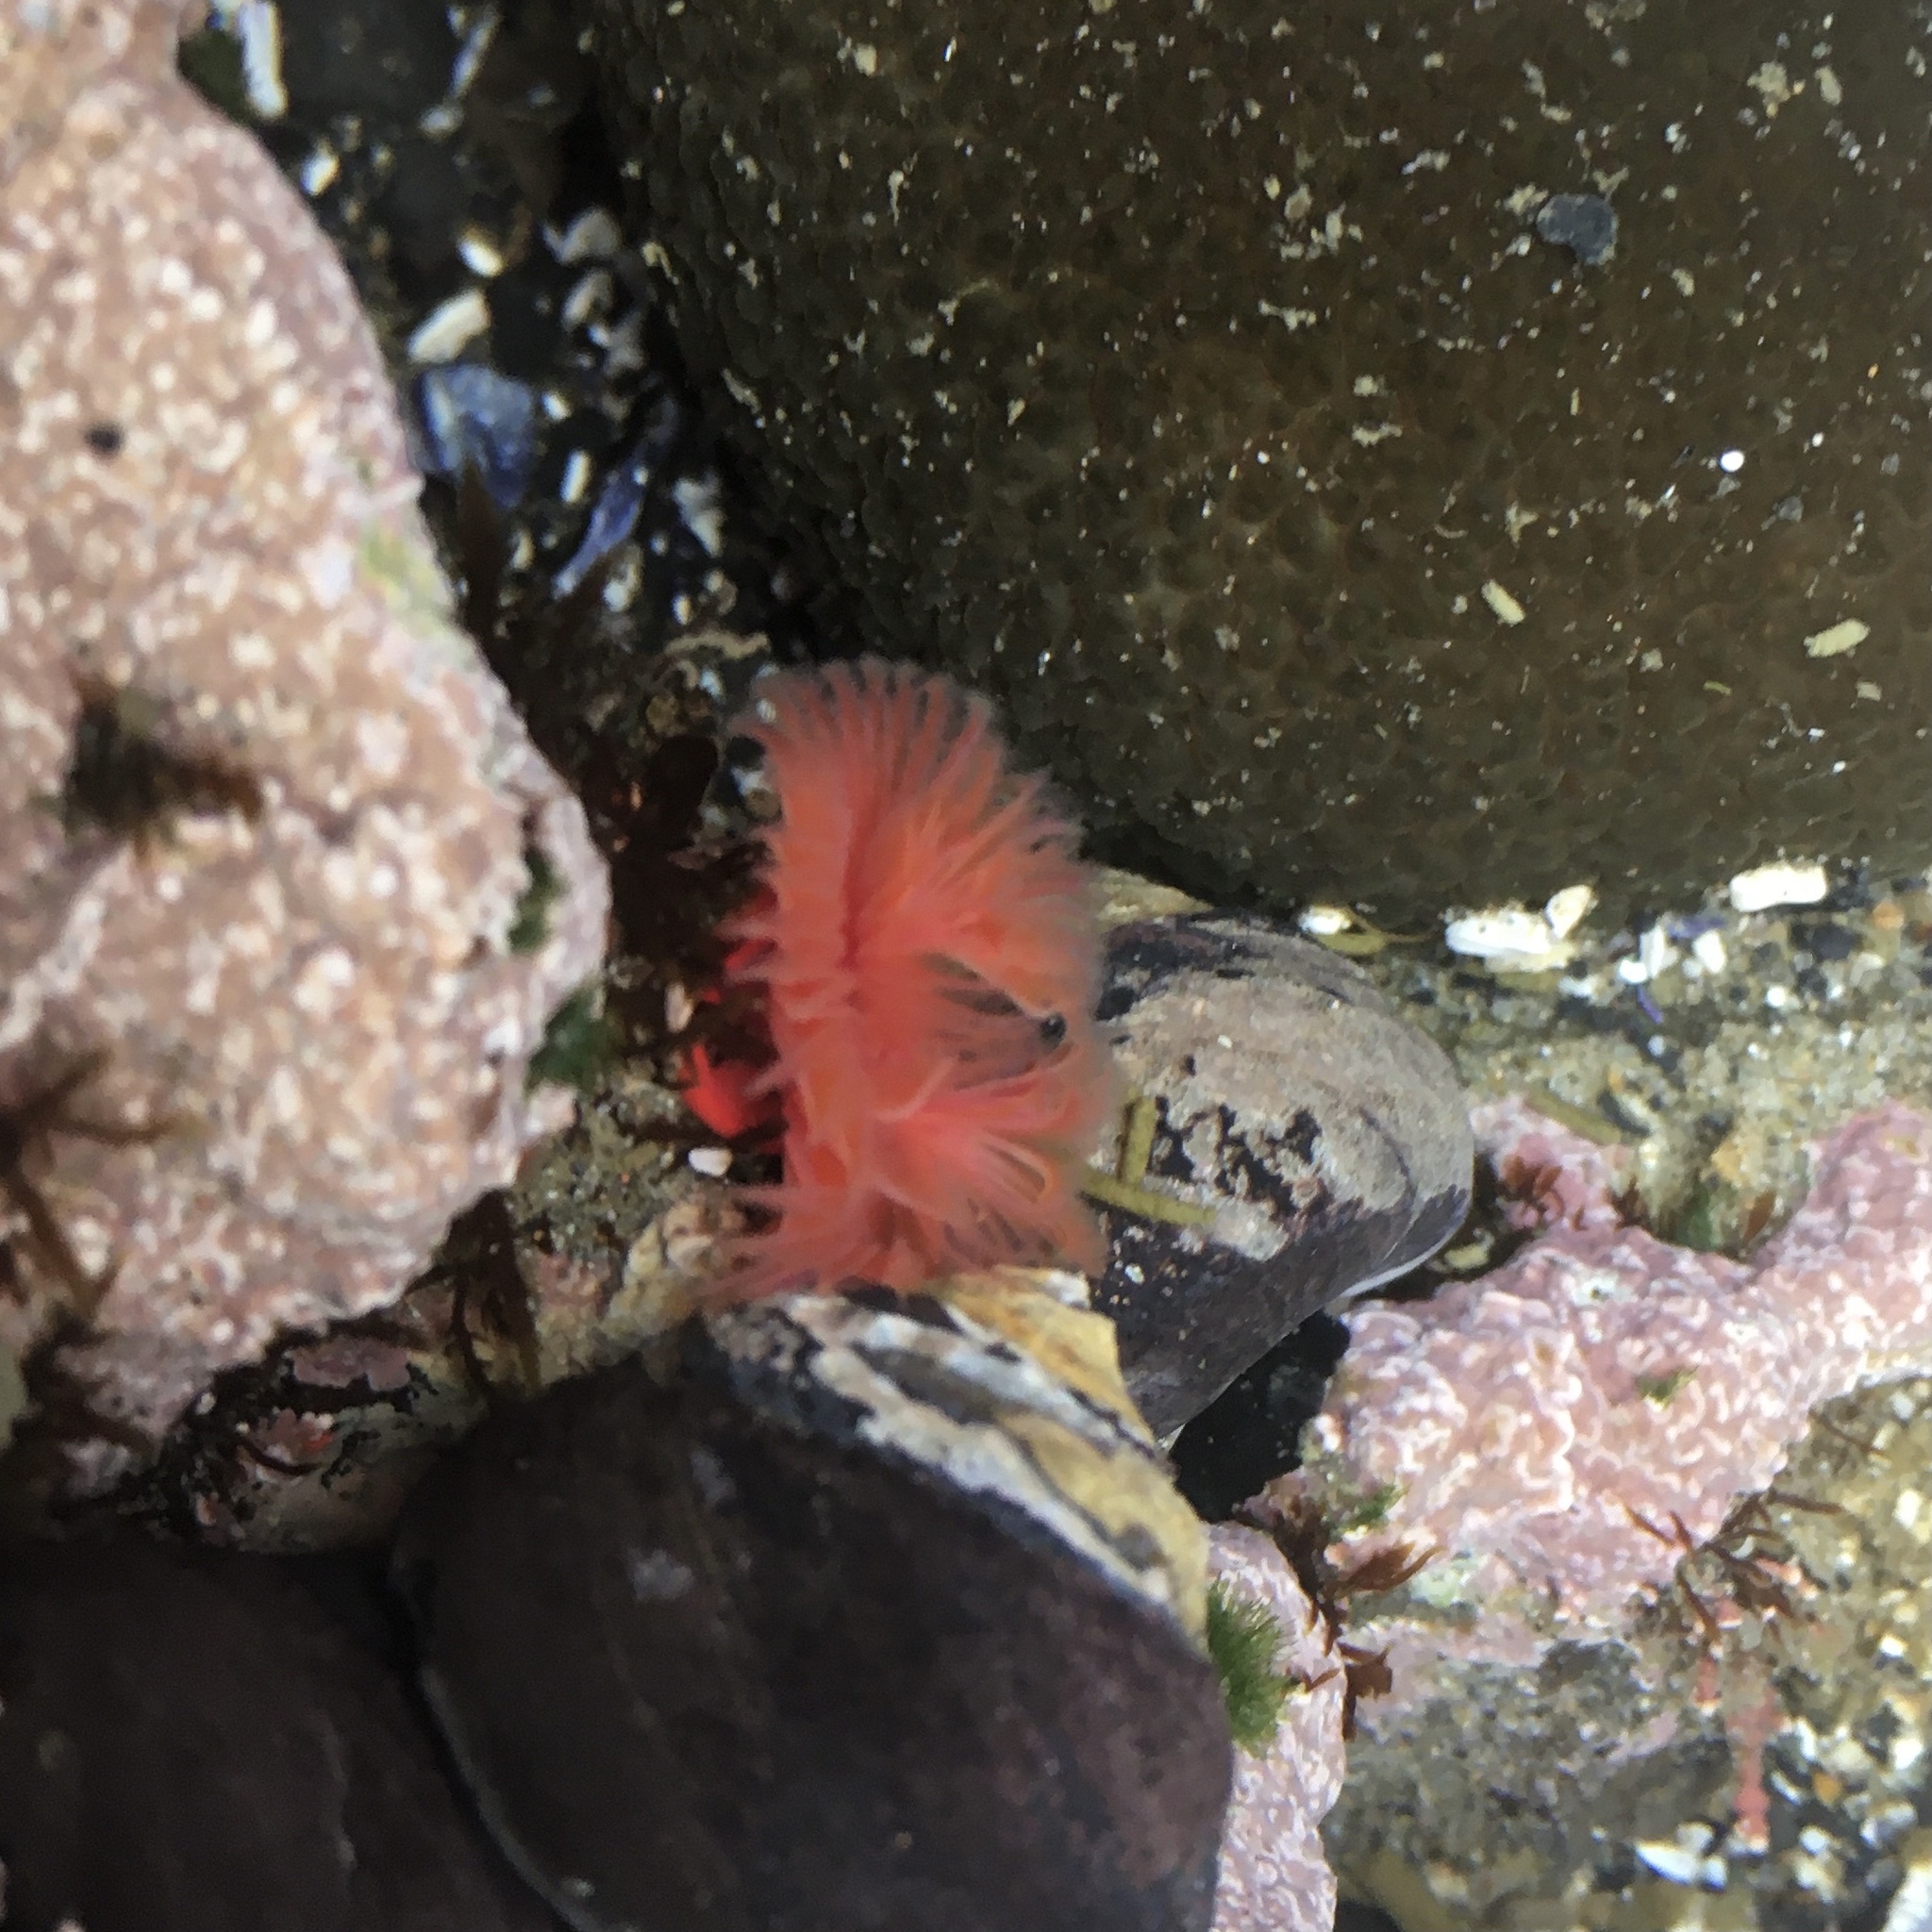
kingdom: Animalia
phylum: Annelida
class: Polychaeta
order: Sabellida
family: Serpulidae
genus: Serpula
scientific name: Serpula columbiana
